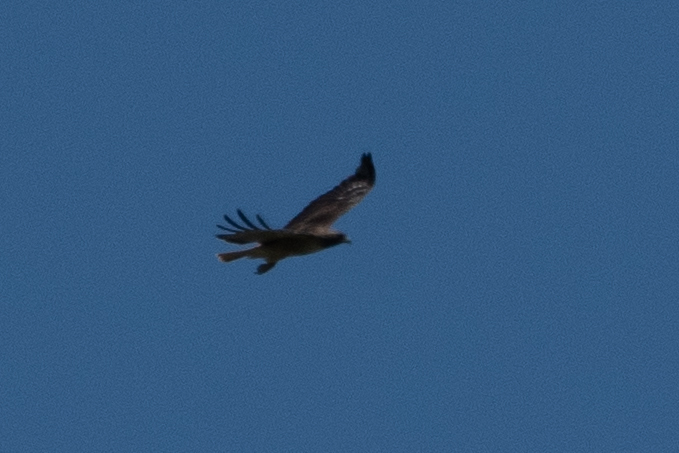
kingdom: Animalia
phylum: Chordata
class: Aves
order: Accipitriformes
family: Accipitridae
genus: Buteo
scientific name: Buteo jamaicensis
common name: Red-tailed hawk
